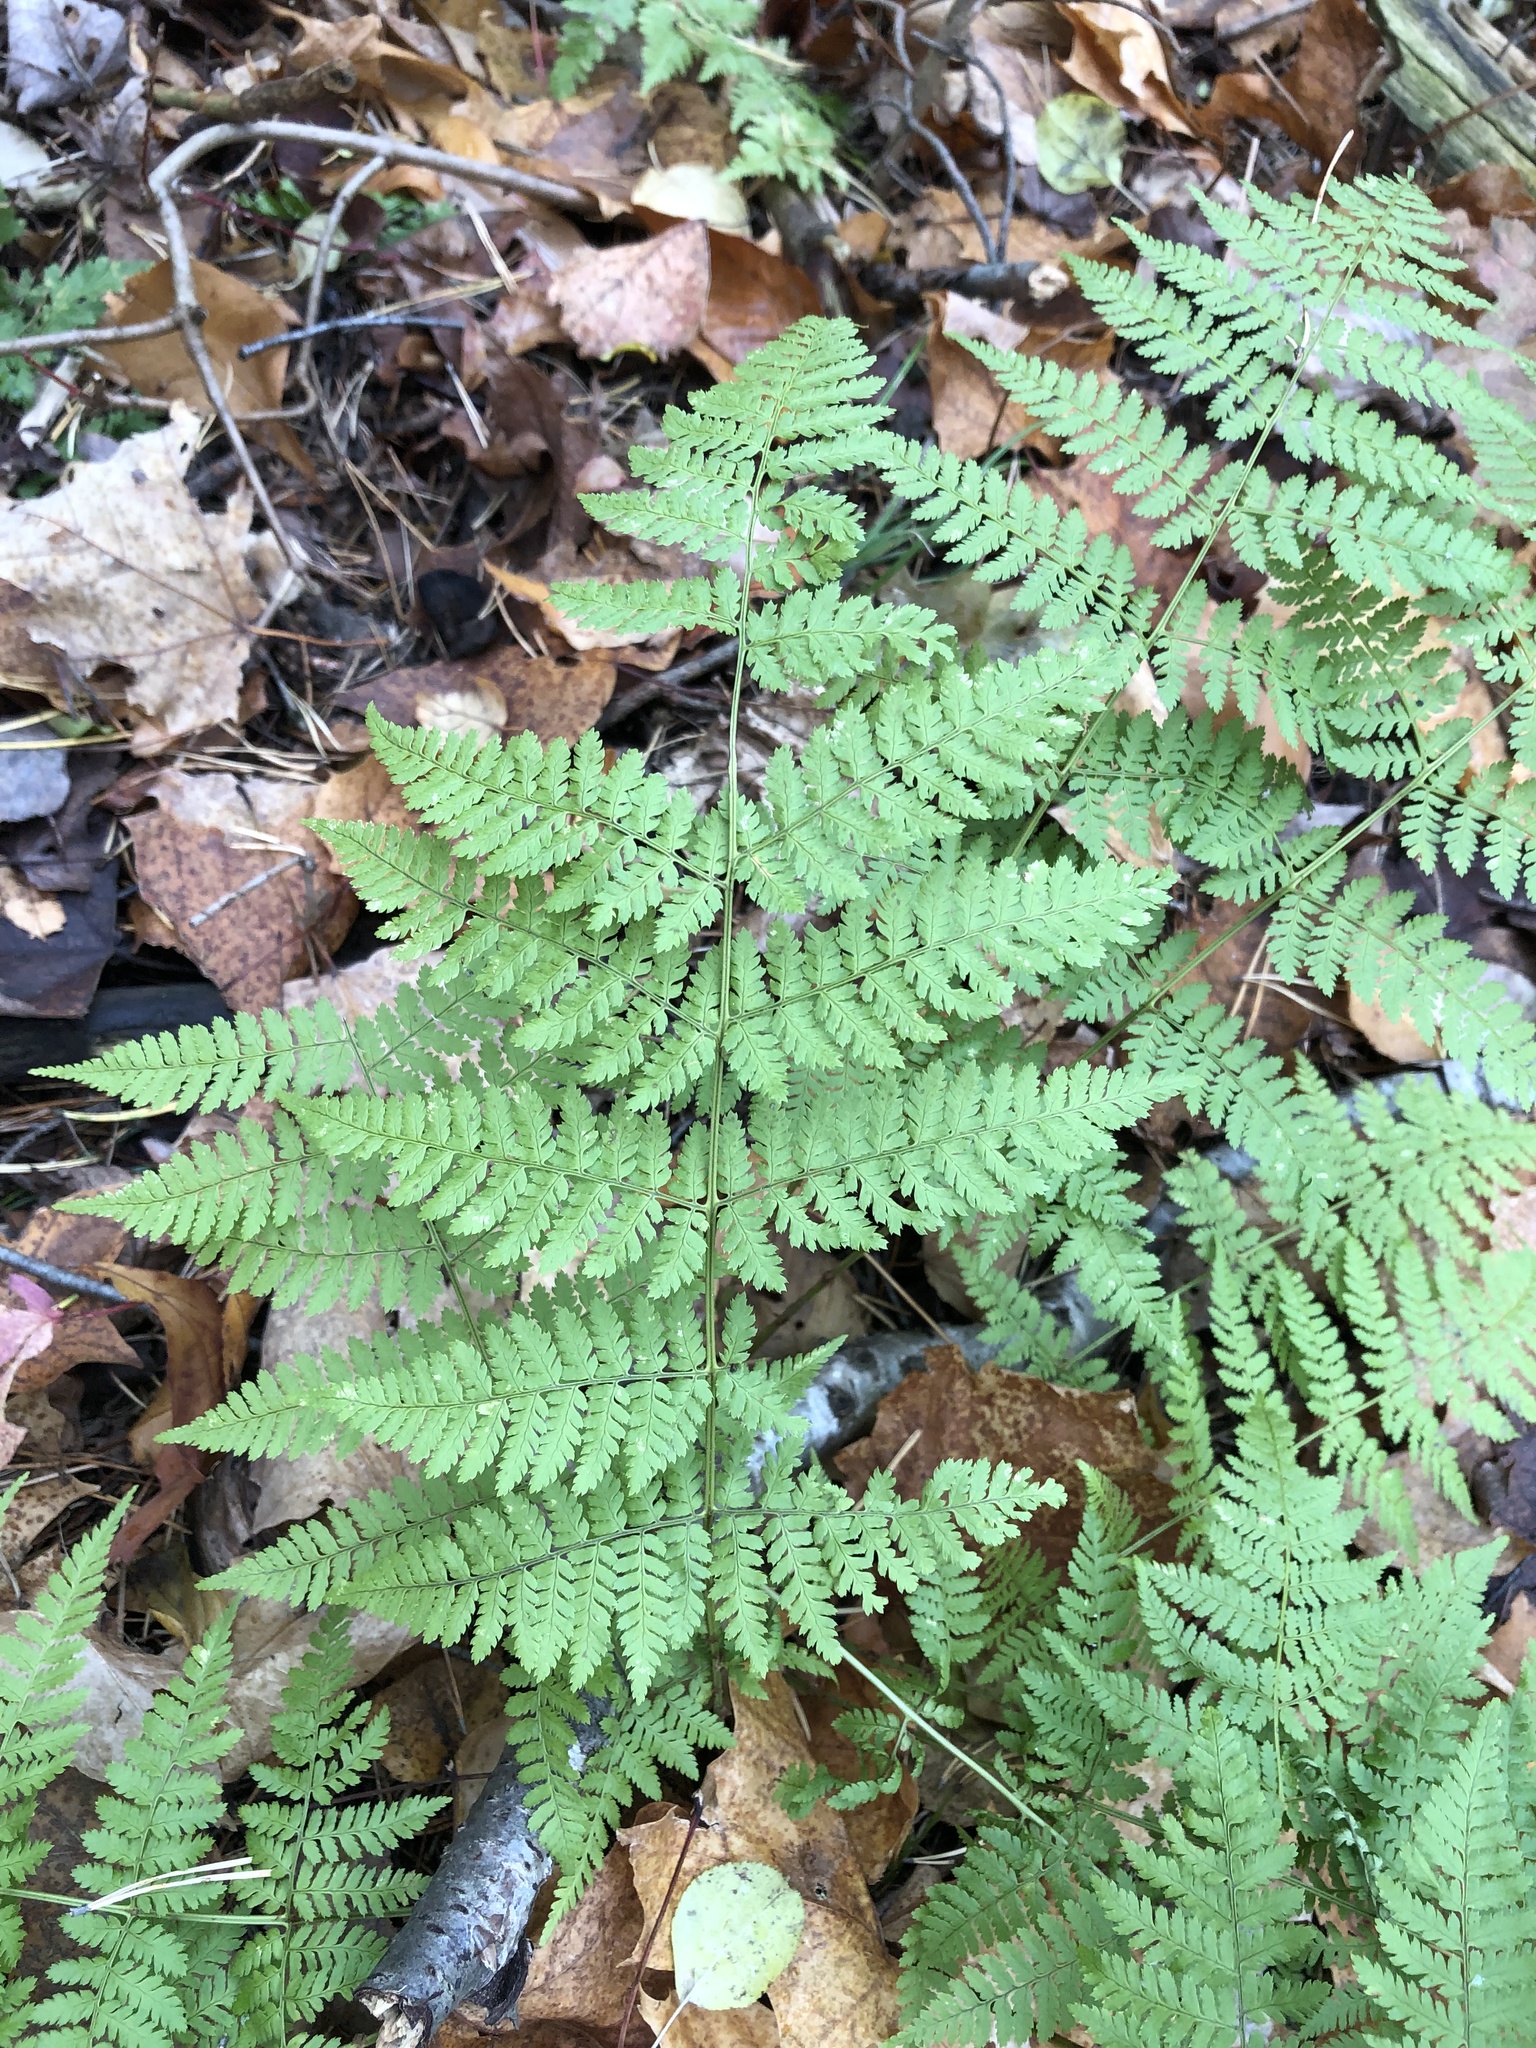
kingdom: Plantae
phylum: Tracheophyta
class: Polypodiopsida
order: Polypodiales
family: Dryopteridaceae
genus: Dryopteris
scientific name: Dryopteris intermedia
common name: Evergreen wood fern
